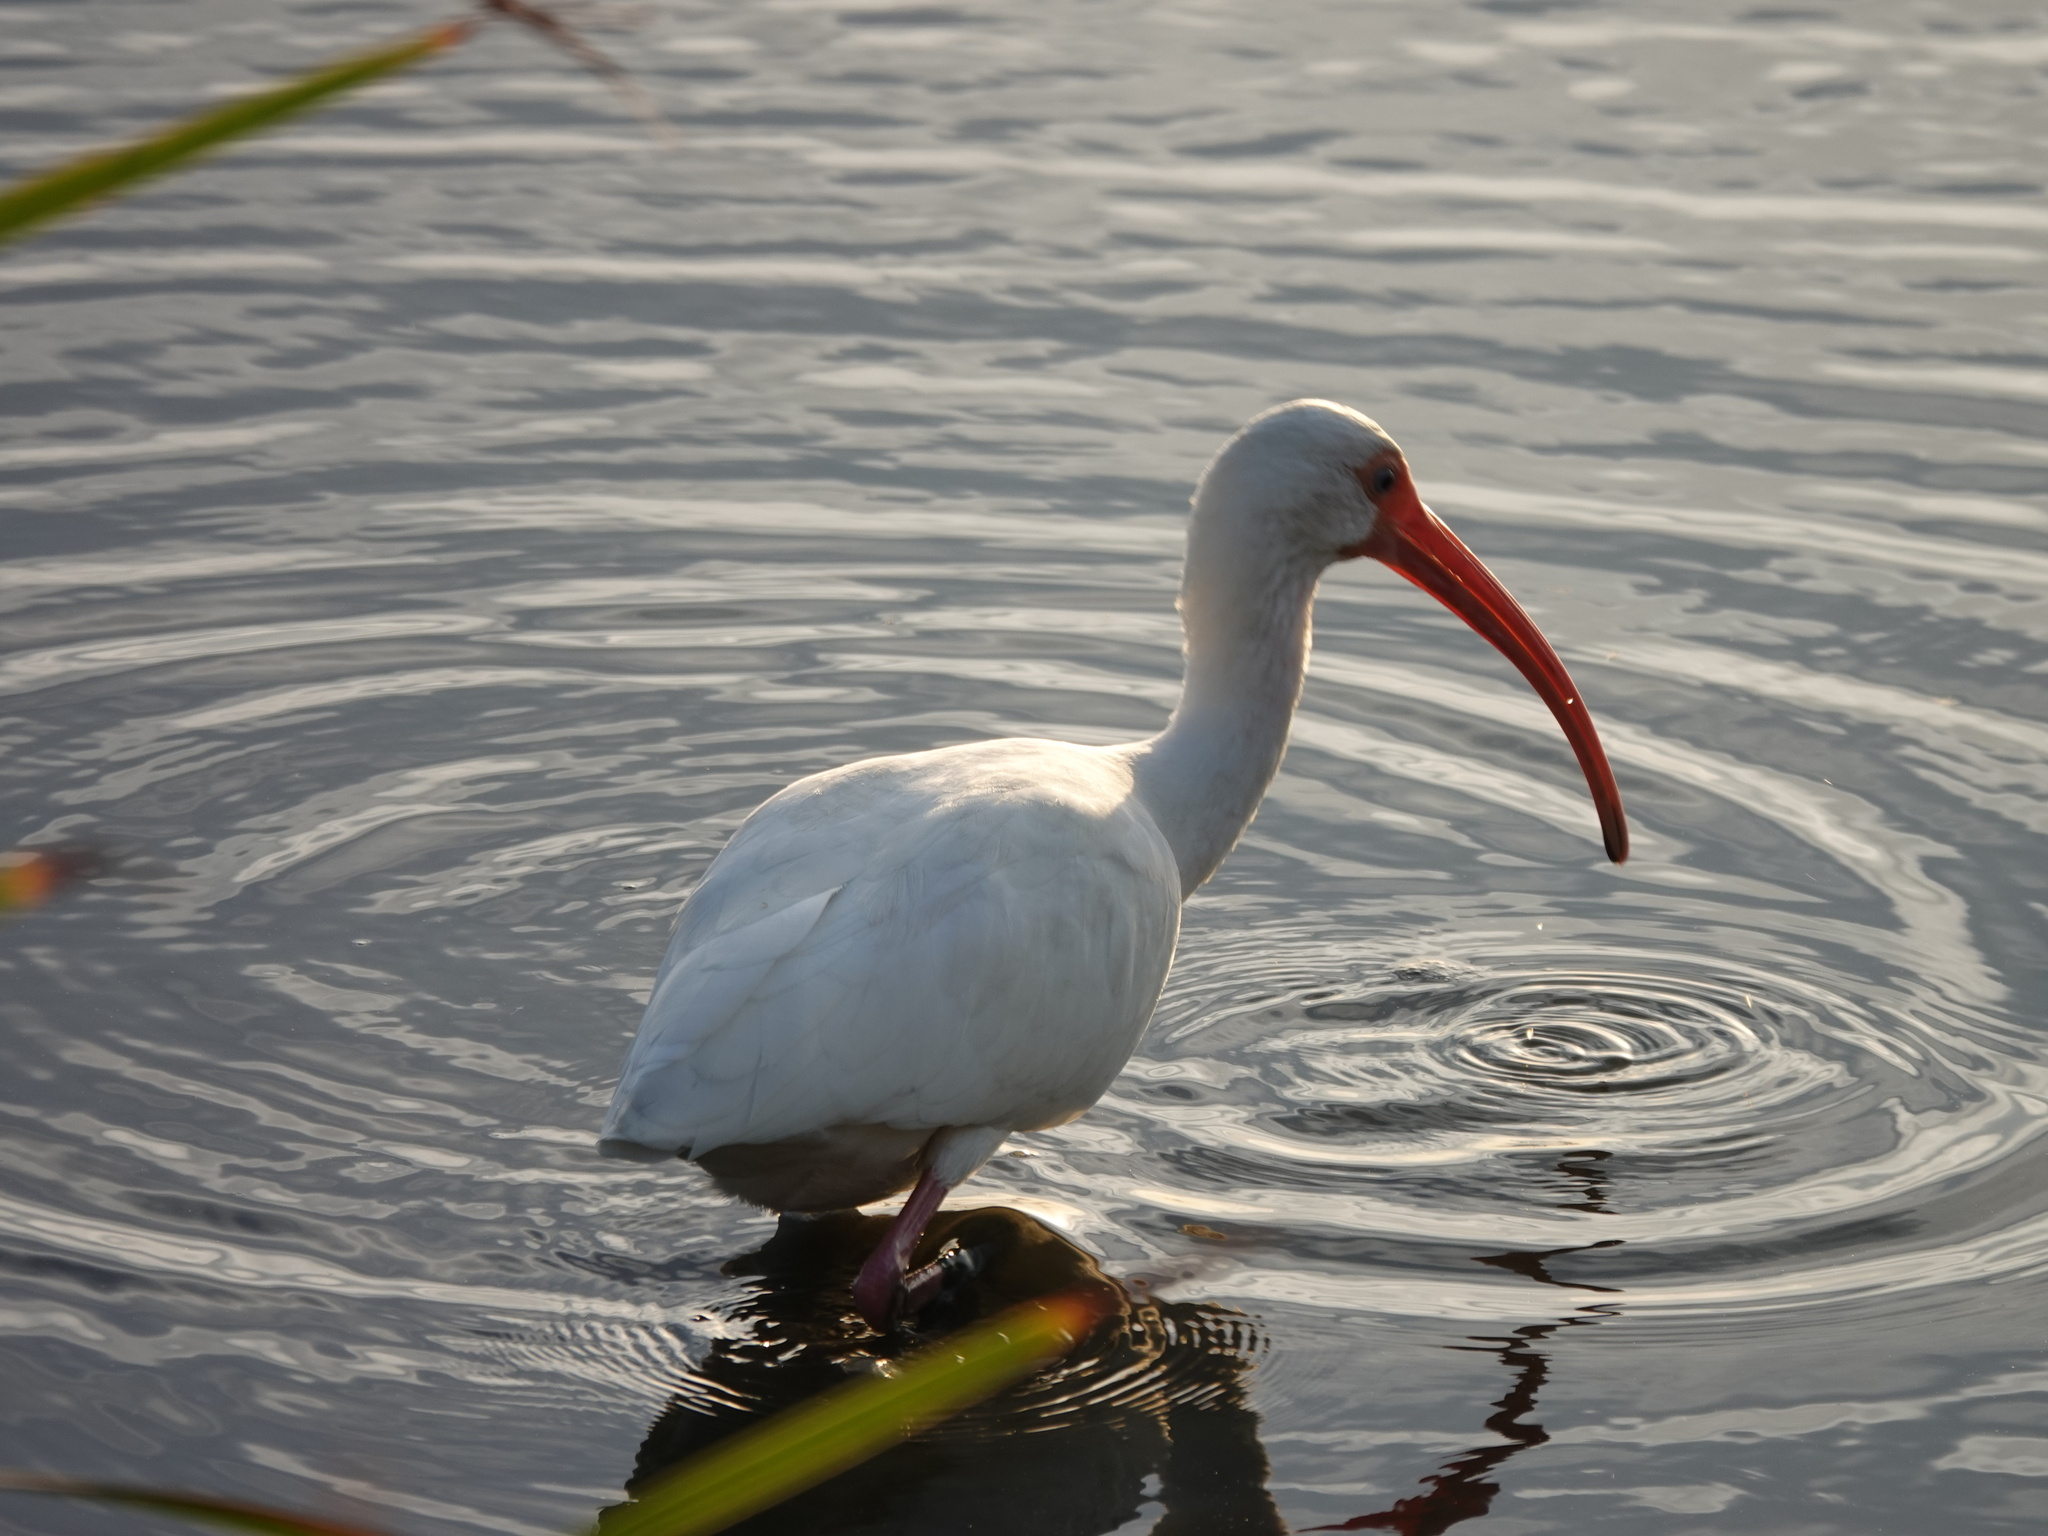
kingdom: Animalia
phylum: Chordata
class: Aves
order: Pelecaniformes
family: Threskiornithidae
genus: Eudocimus
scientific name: Eudocimus albus
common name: White ibis
